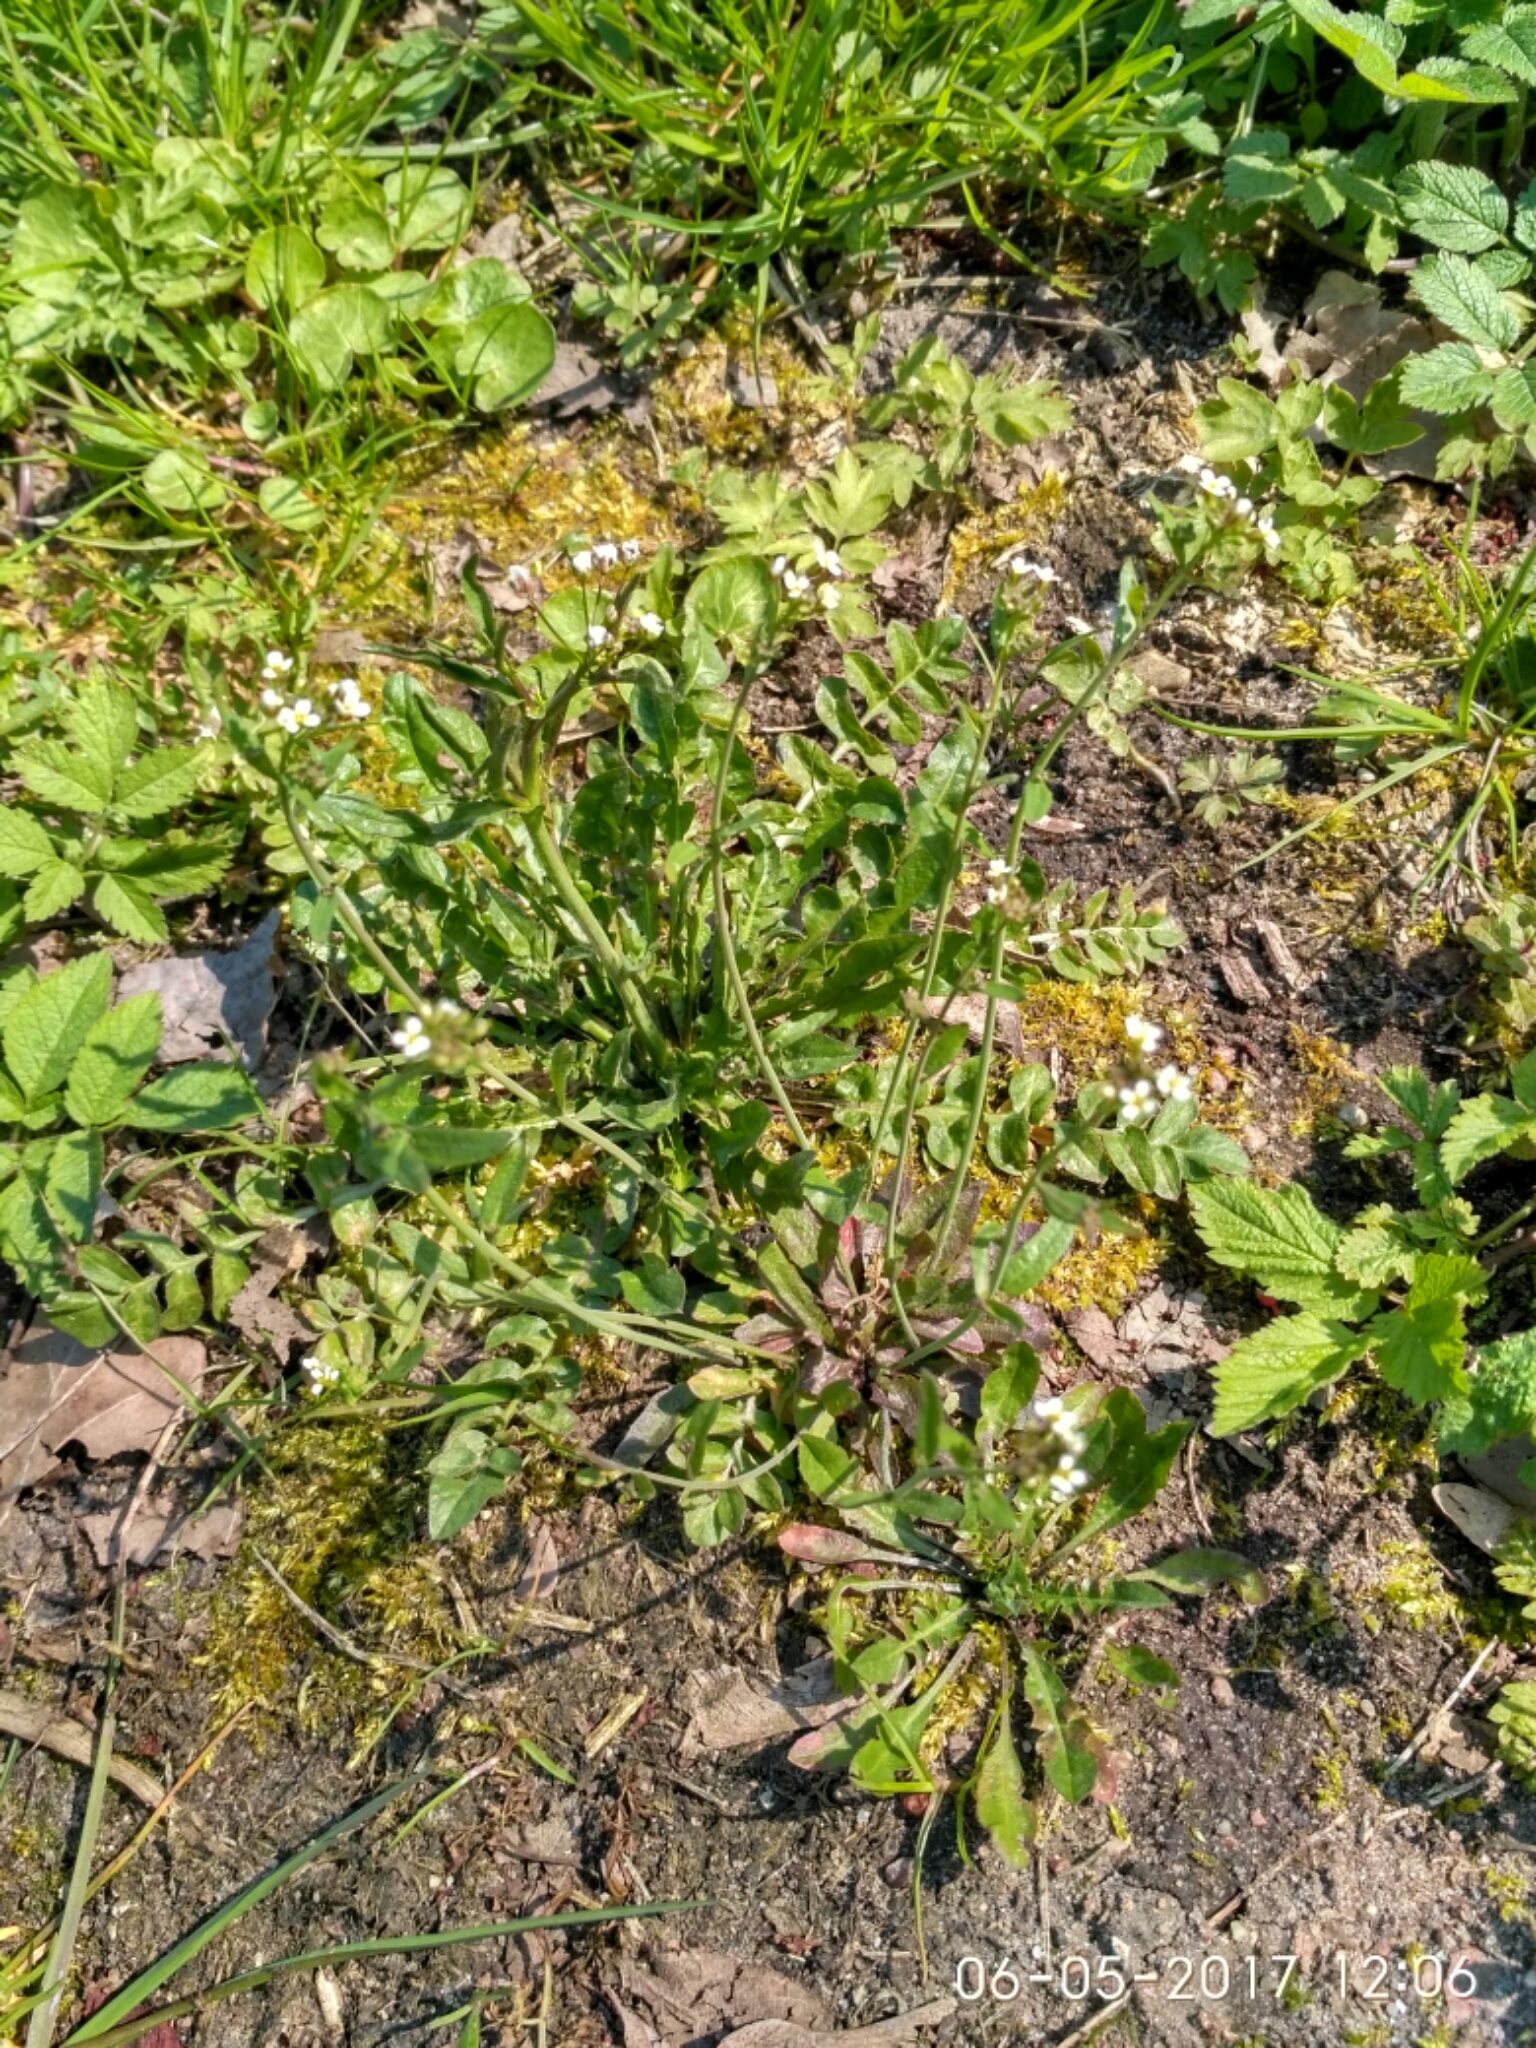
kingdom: Plantae
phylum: Tracheophyta
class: Magnoliopsida
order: Brassicales
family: Brassicaceae
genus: Capsella
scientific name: Capsella bursa-pastoris
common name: Shepherd's purse
